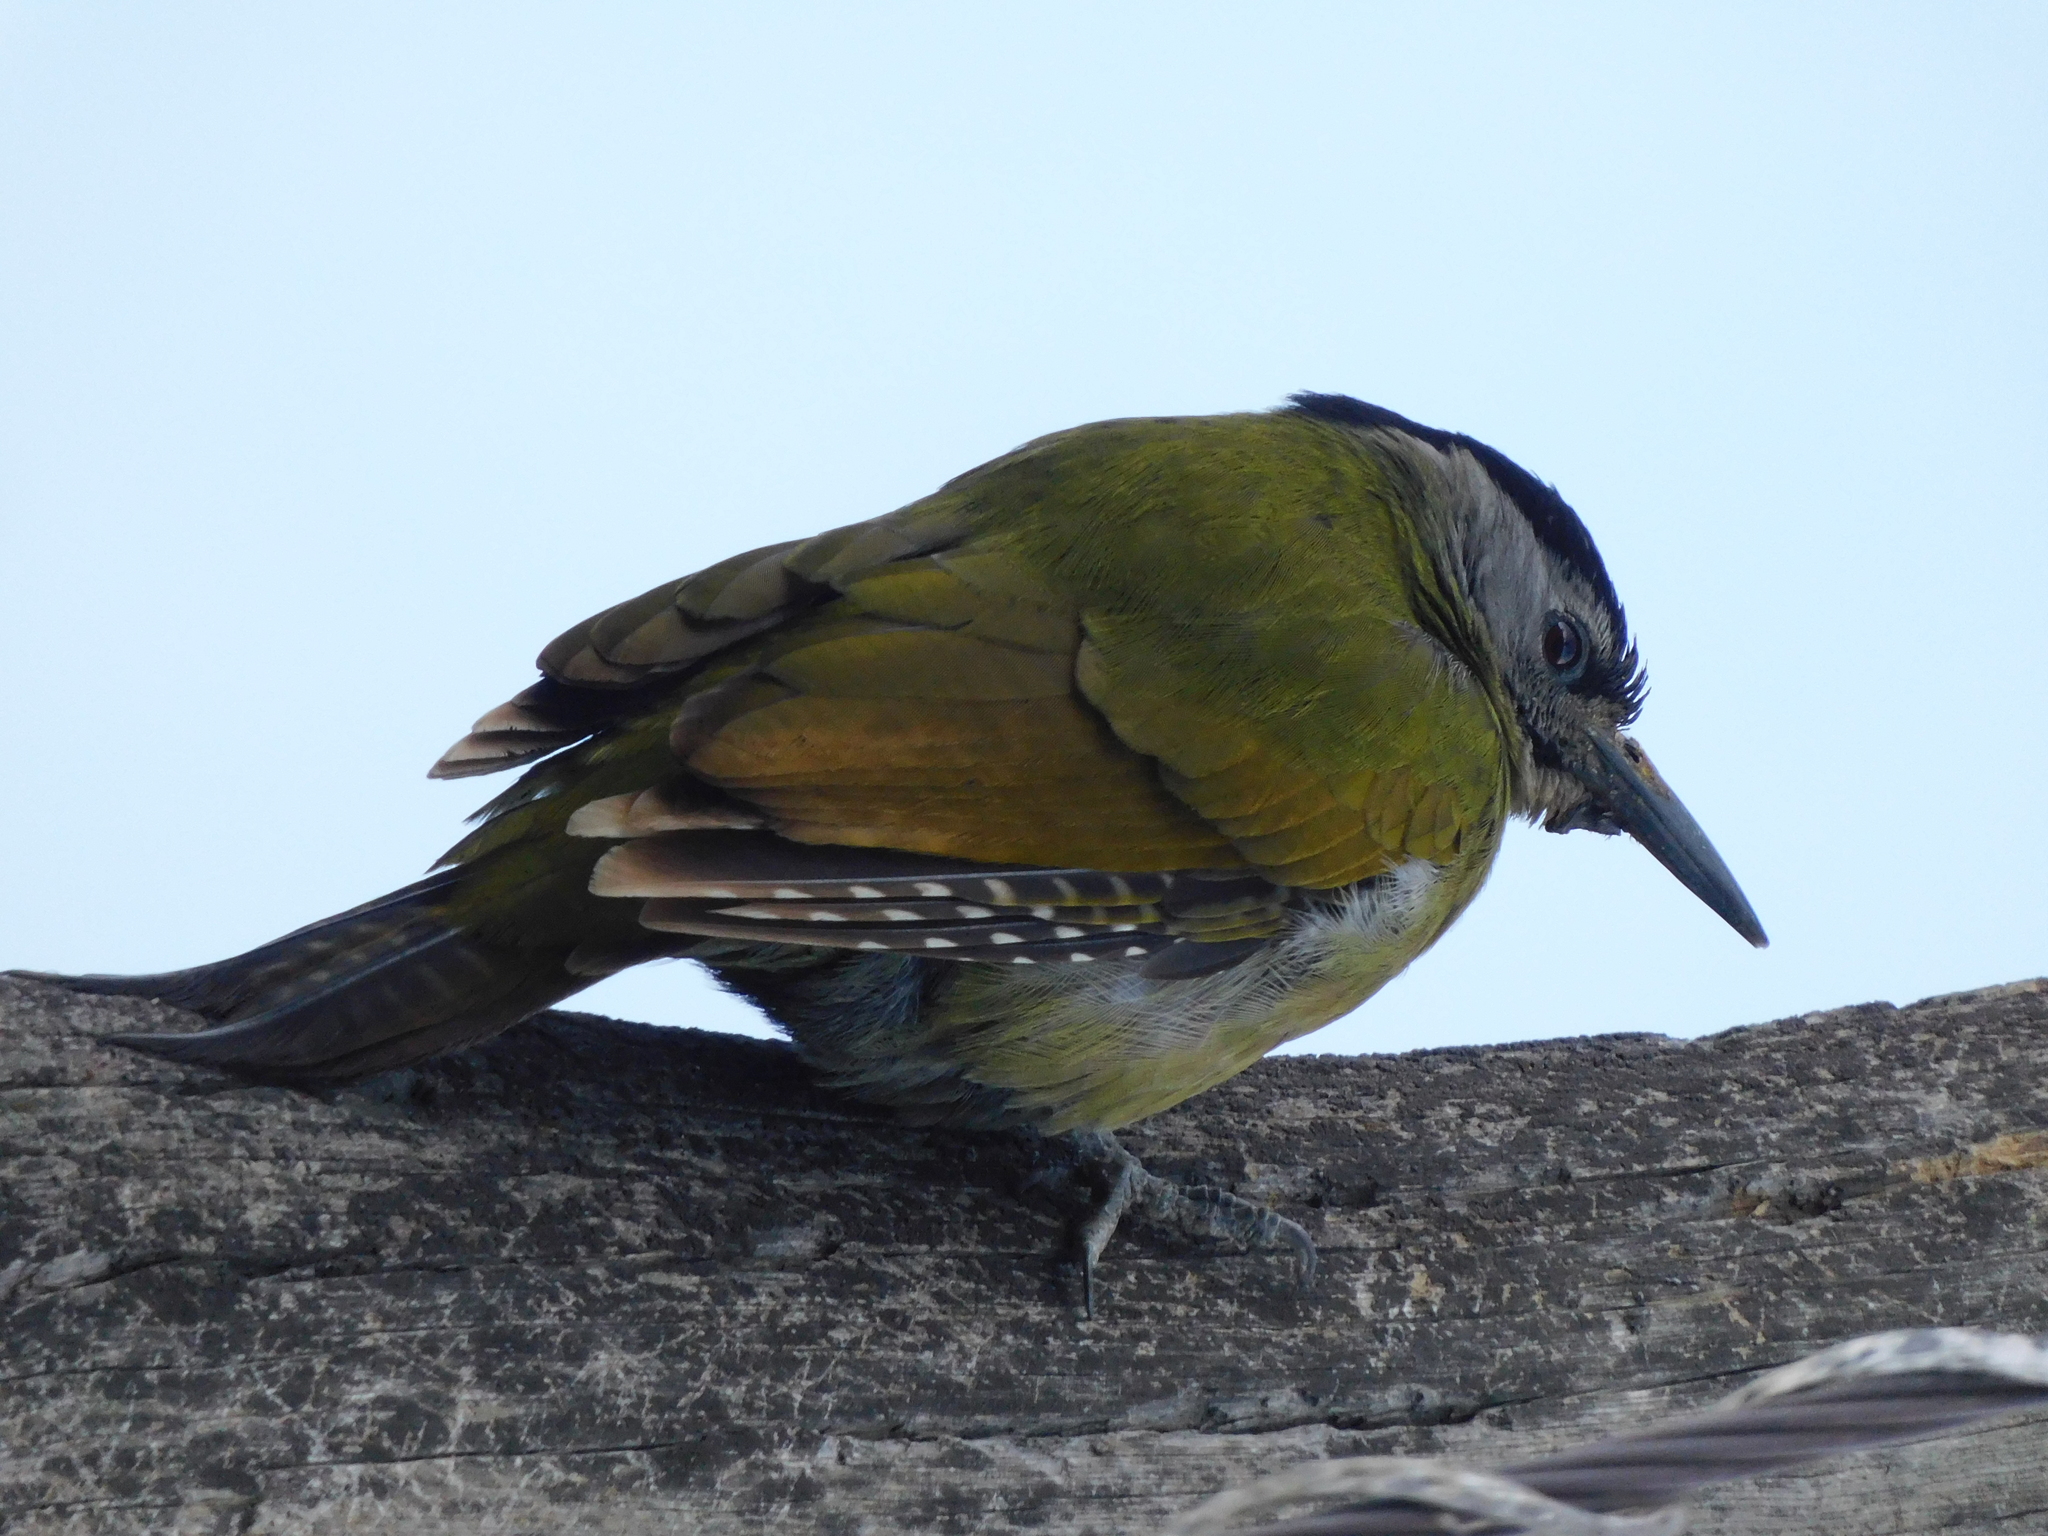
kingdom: Animalia
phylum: Chordata
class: Aves
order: Piciformes
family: Picidae
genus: Picus
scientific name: Picus canus
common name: Grey-headed woodpecker
